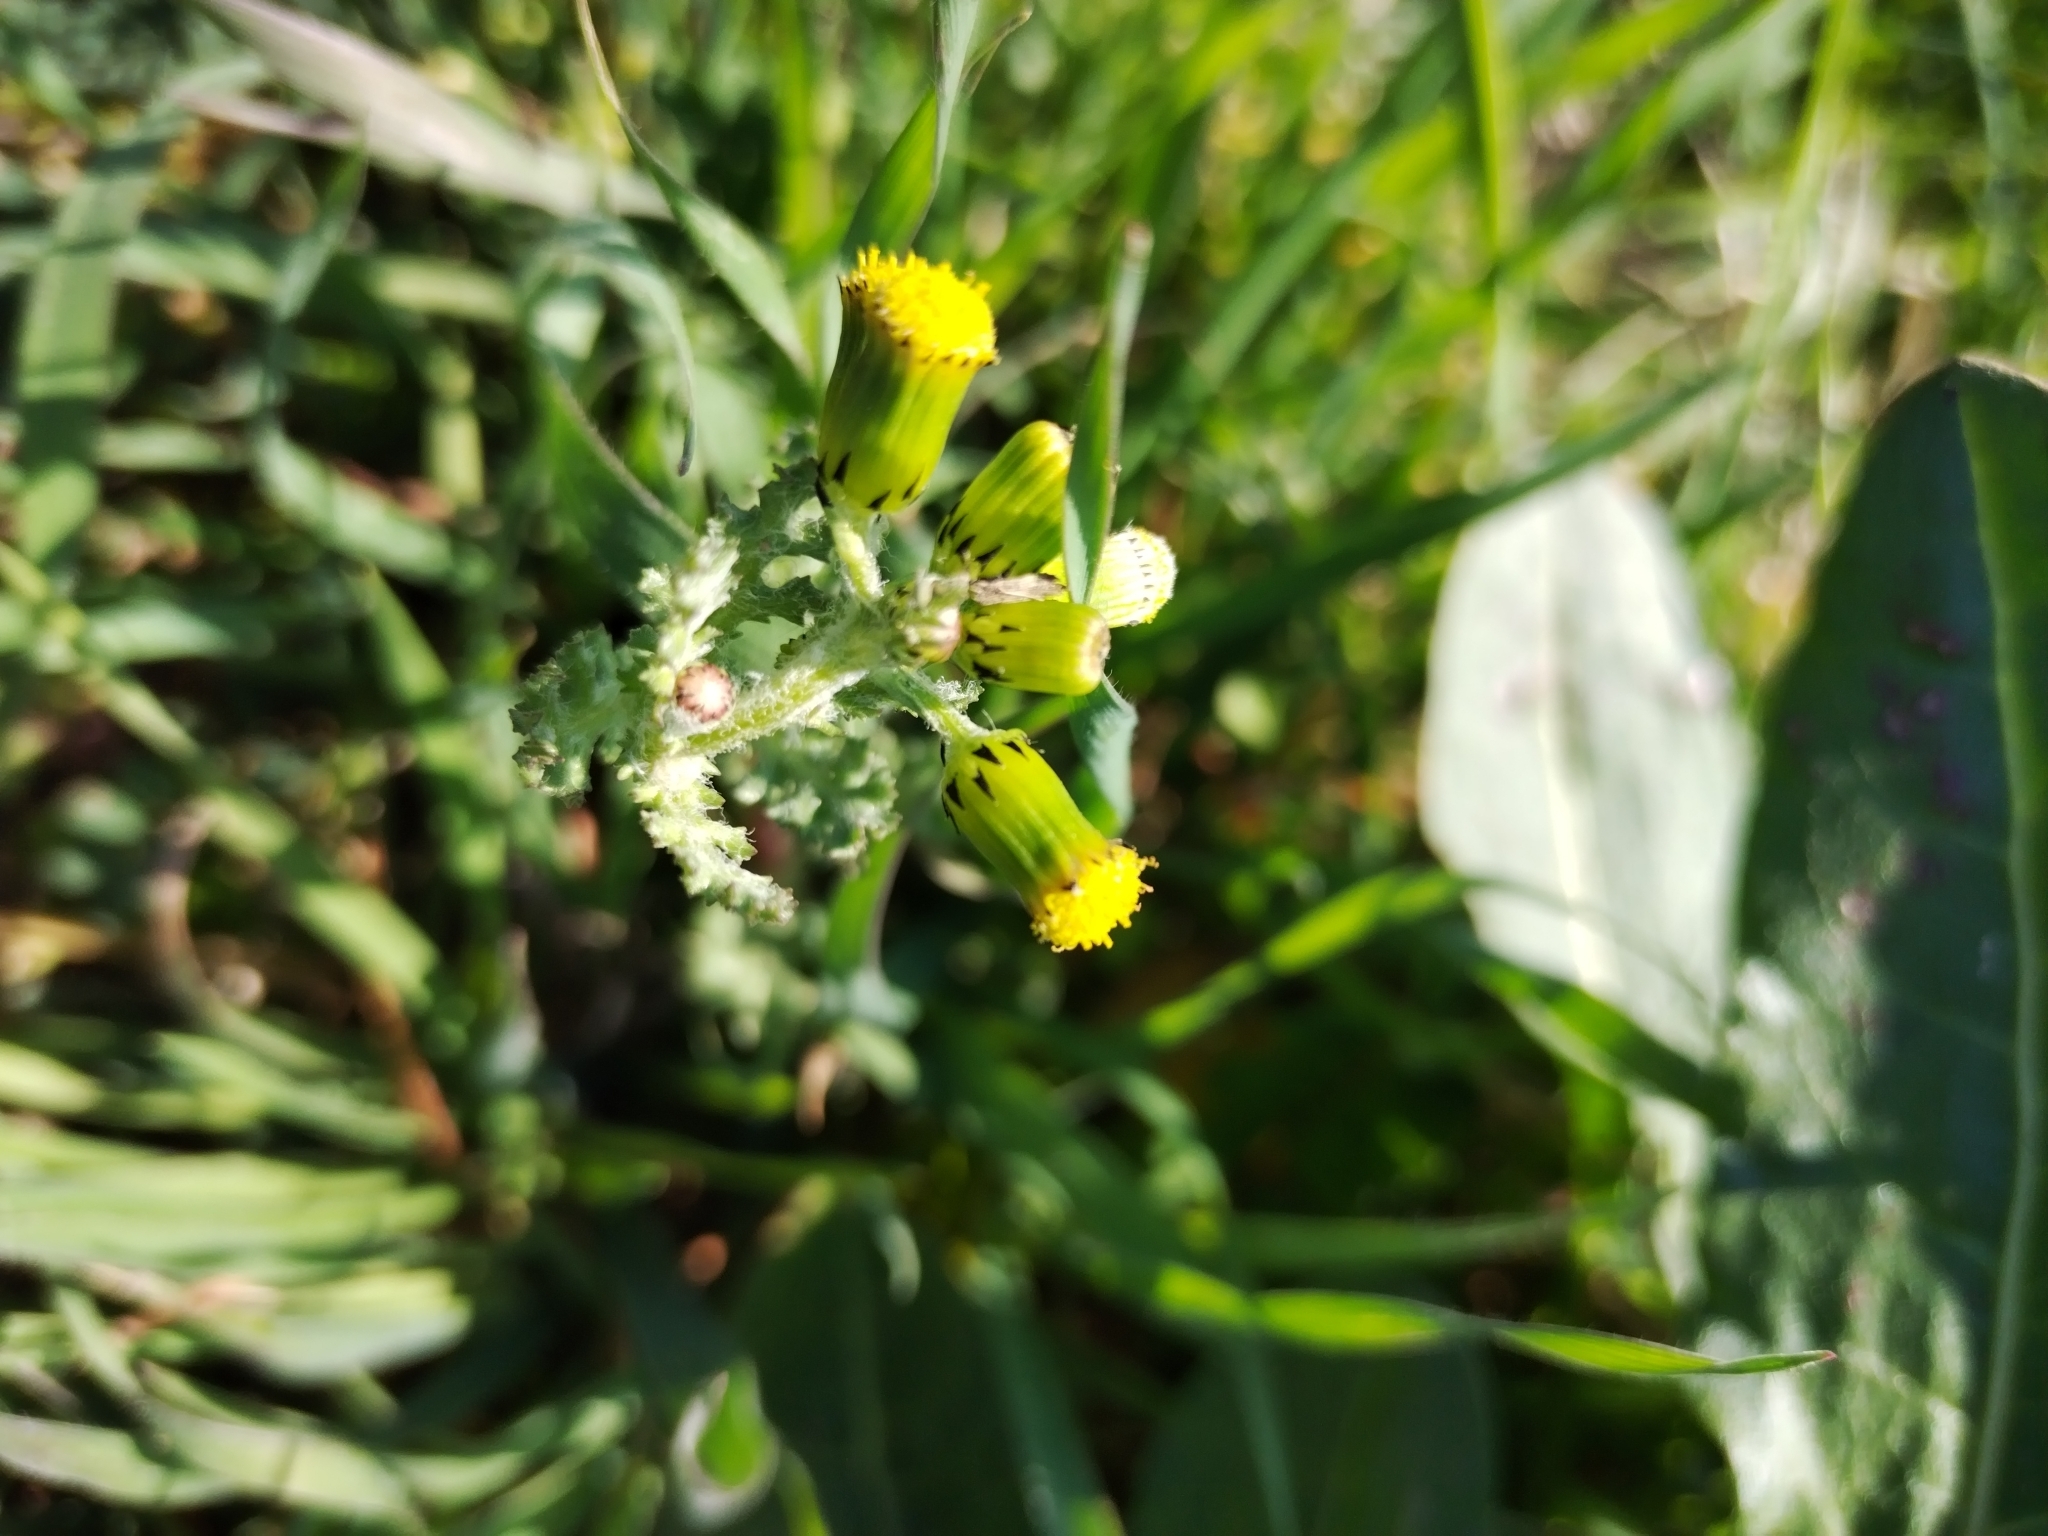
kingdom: Plantae
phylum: Tracheophyta
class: Magnoliopsida
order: Asterales
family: Asteraceae
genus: Senecio
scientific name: Senecio vulgaris
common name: Old-man-in-the-spring
